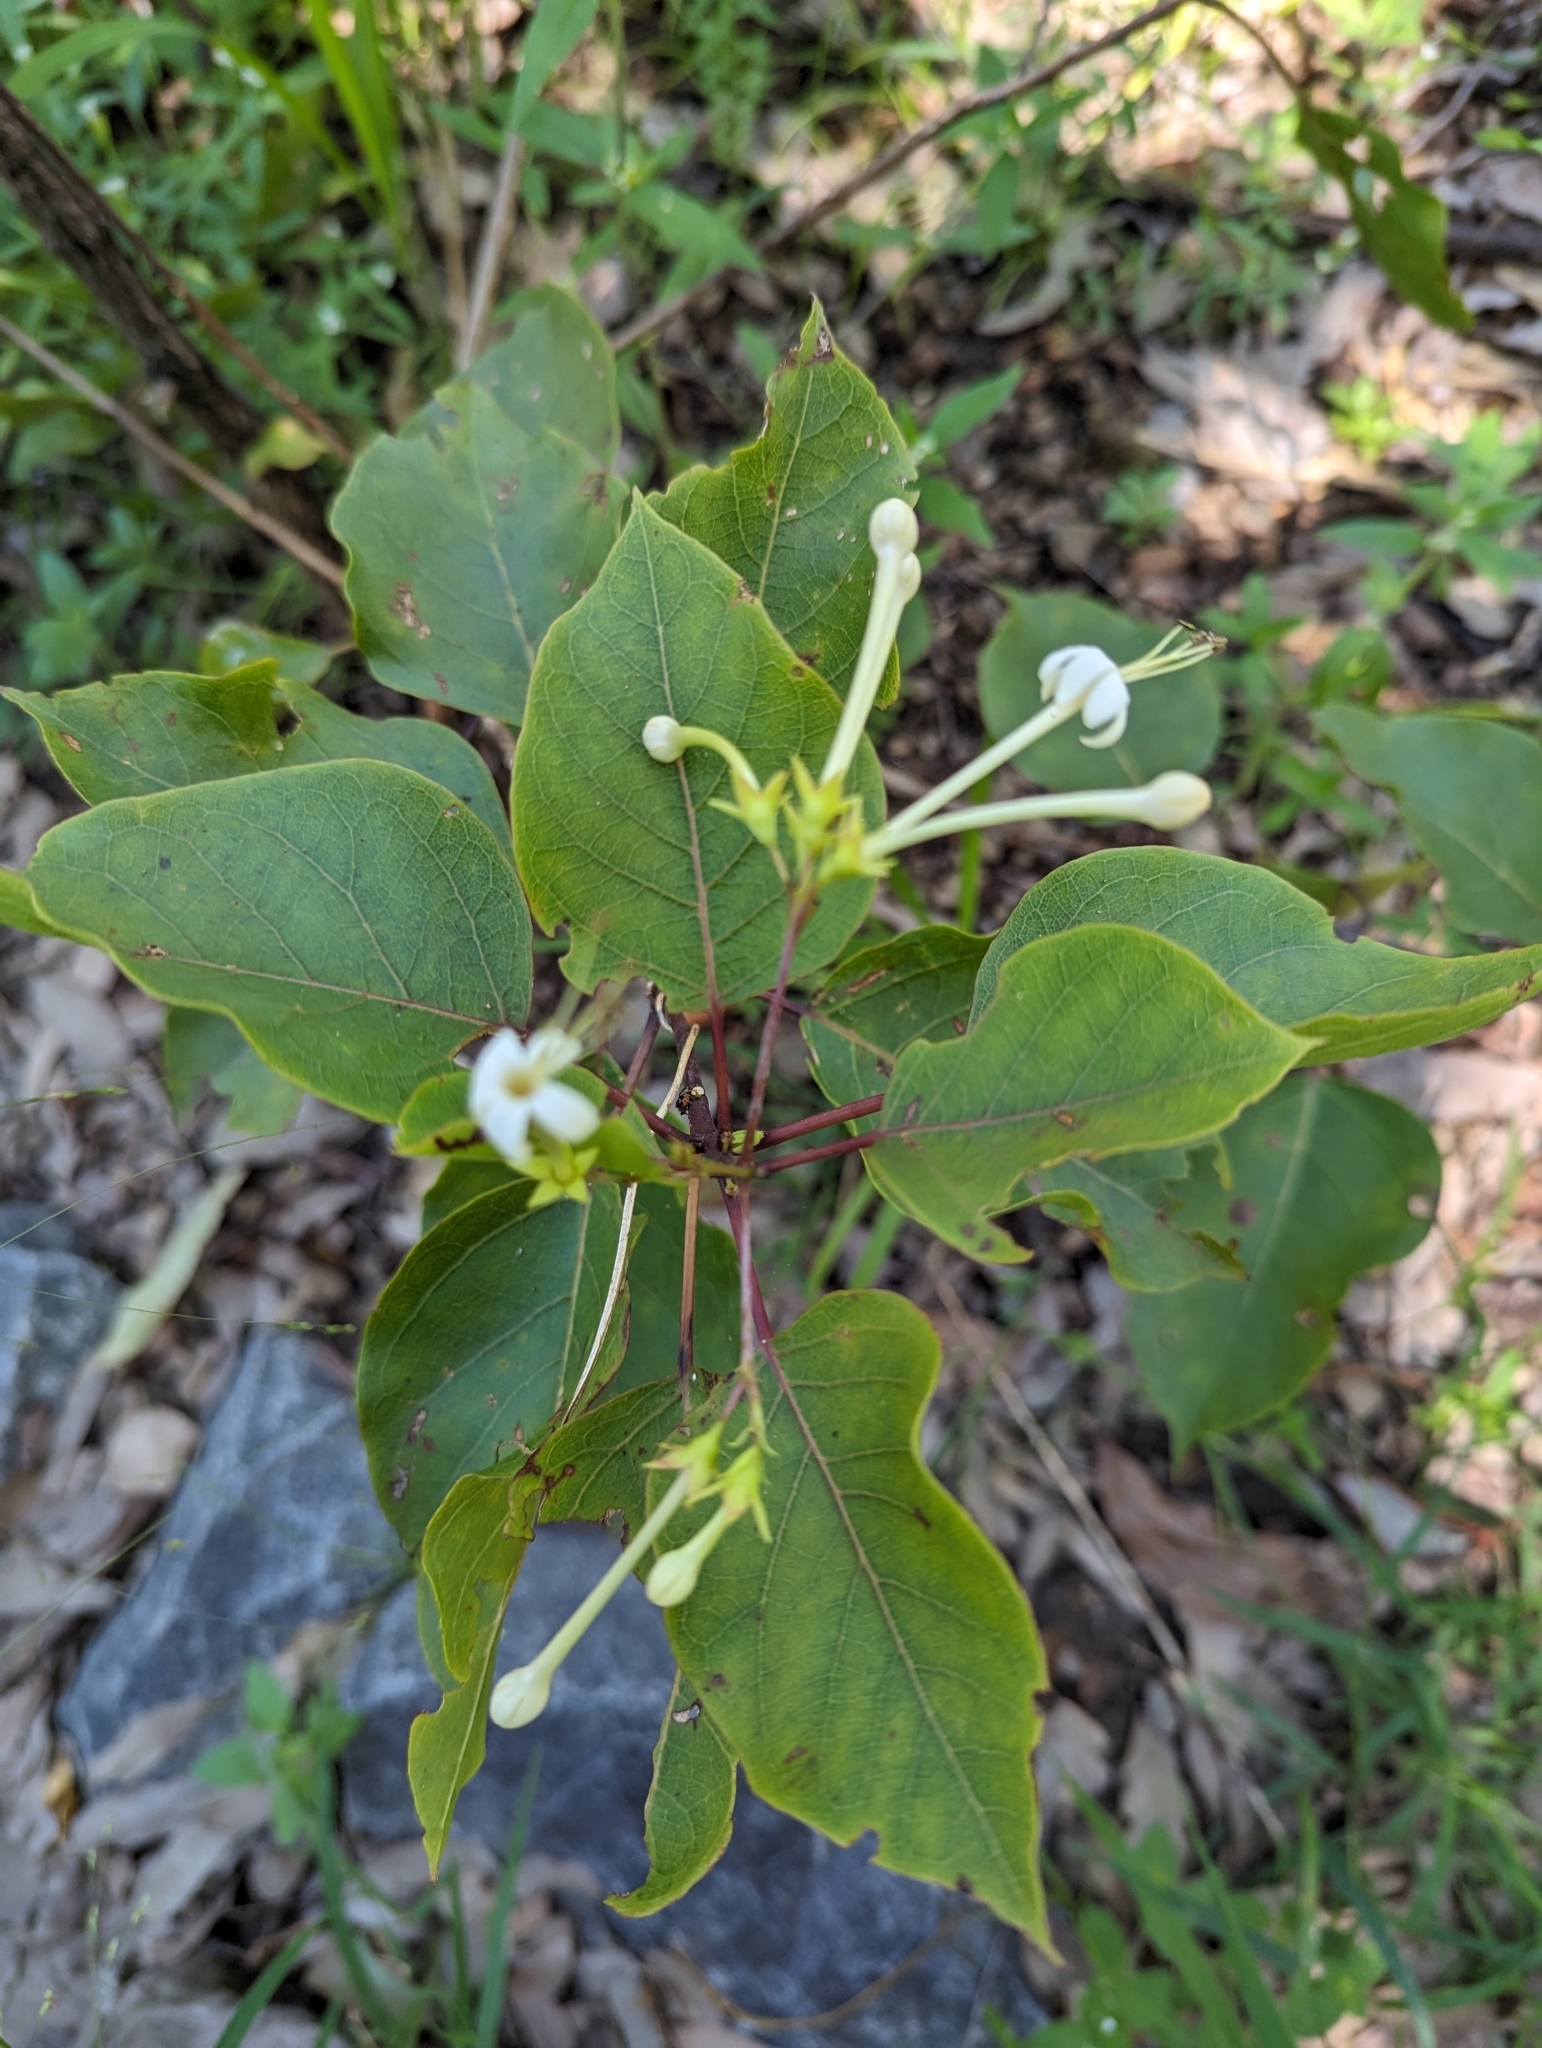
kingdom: Plantae
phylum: Tracheophyta
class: Magnoliopsida
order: Lamiales
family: Lamiaceae
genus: Clerodendrum
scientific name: Clerodendrum floribundum
